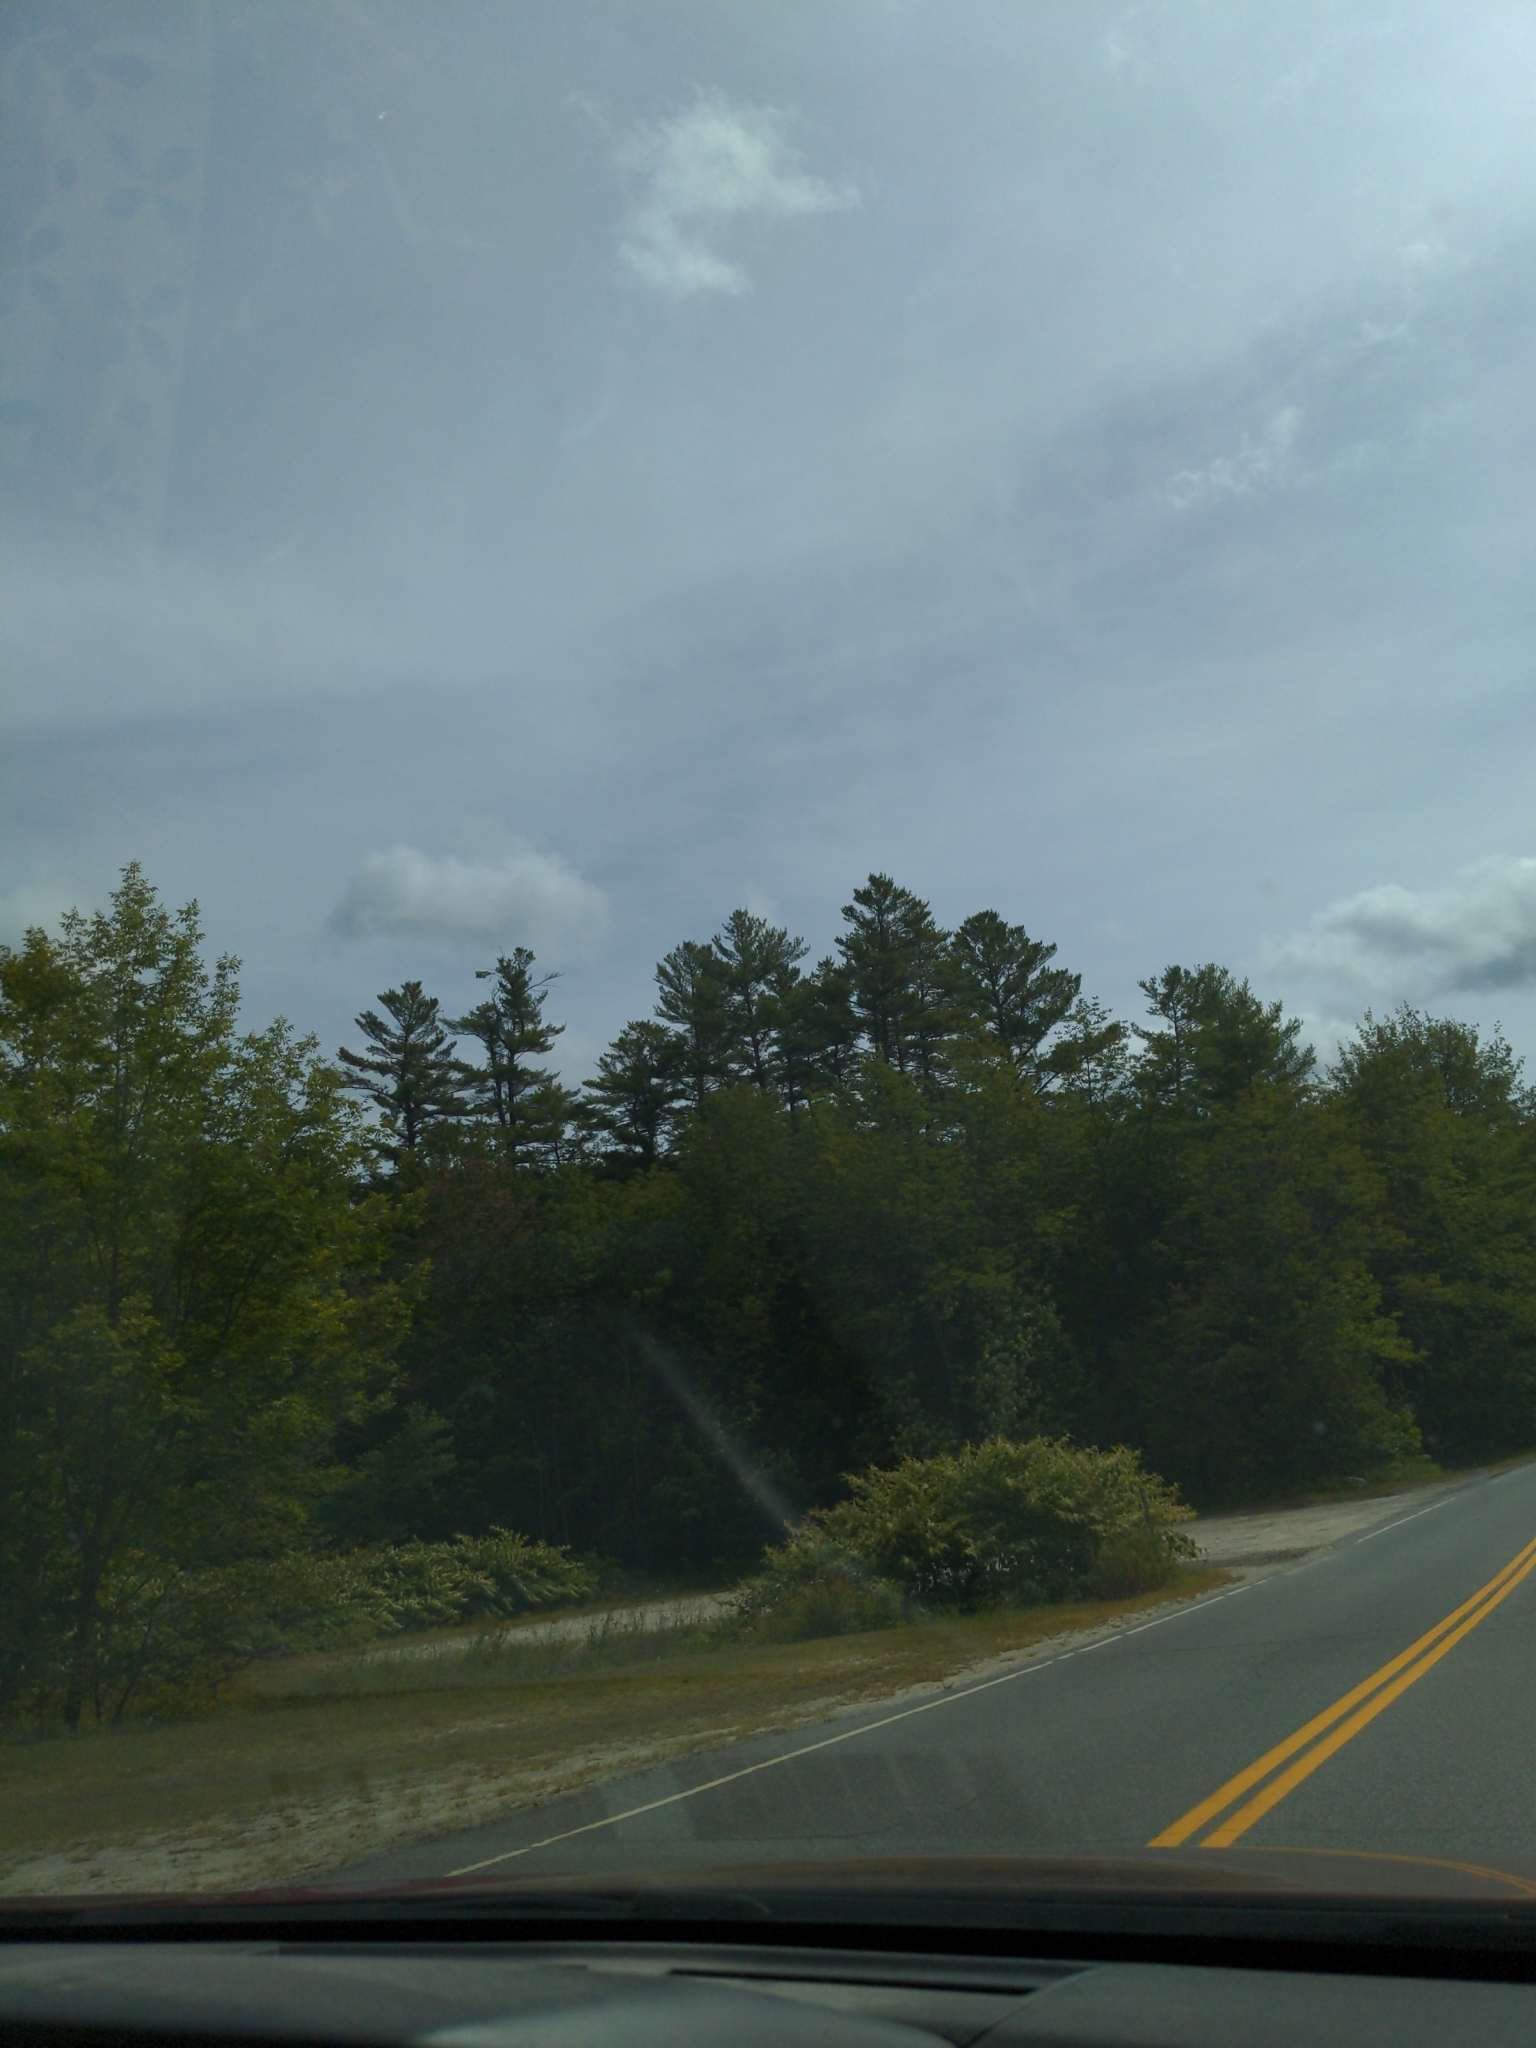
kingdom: Plantae
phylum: Tracheophyta
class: Pinopsida
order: Pinales
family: Pinaceae
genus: Pinus
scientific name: Pinus strobus
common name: Weymouth pine
